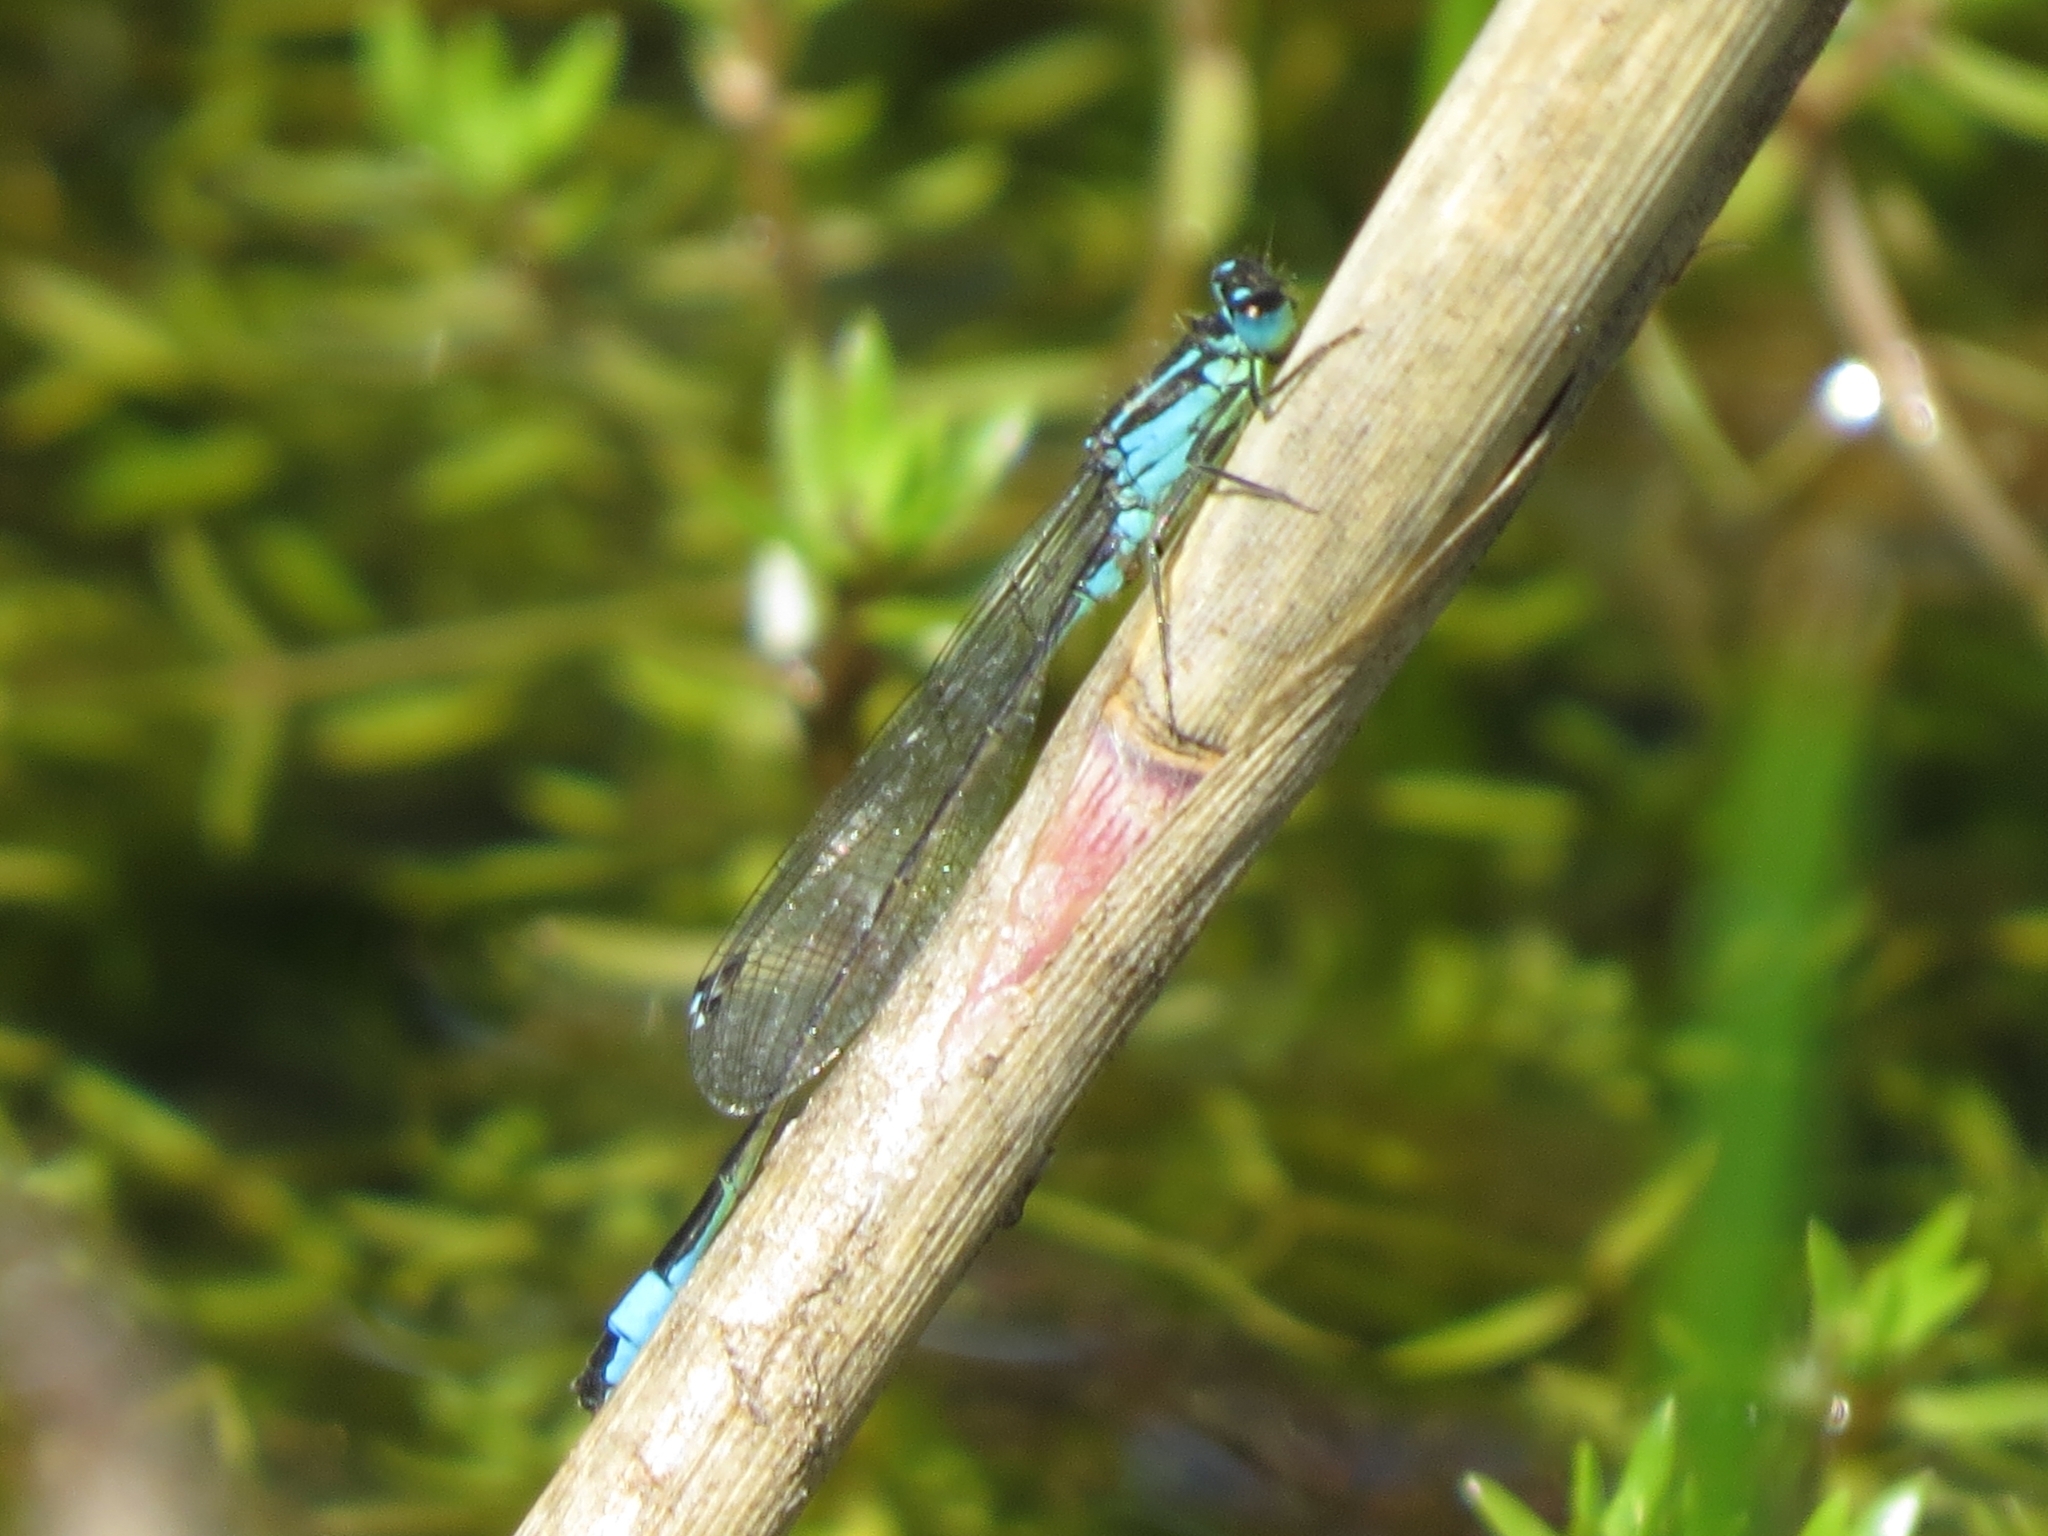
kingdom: Animalia
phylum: Arthropoda
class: Insecta
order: Odonata
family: Coenagrionidae
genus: Ischnura
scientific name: Ischnura elegans
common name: Blue-tailed damselfly
